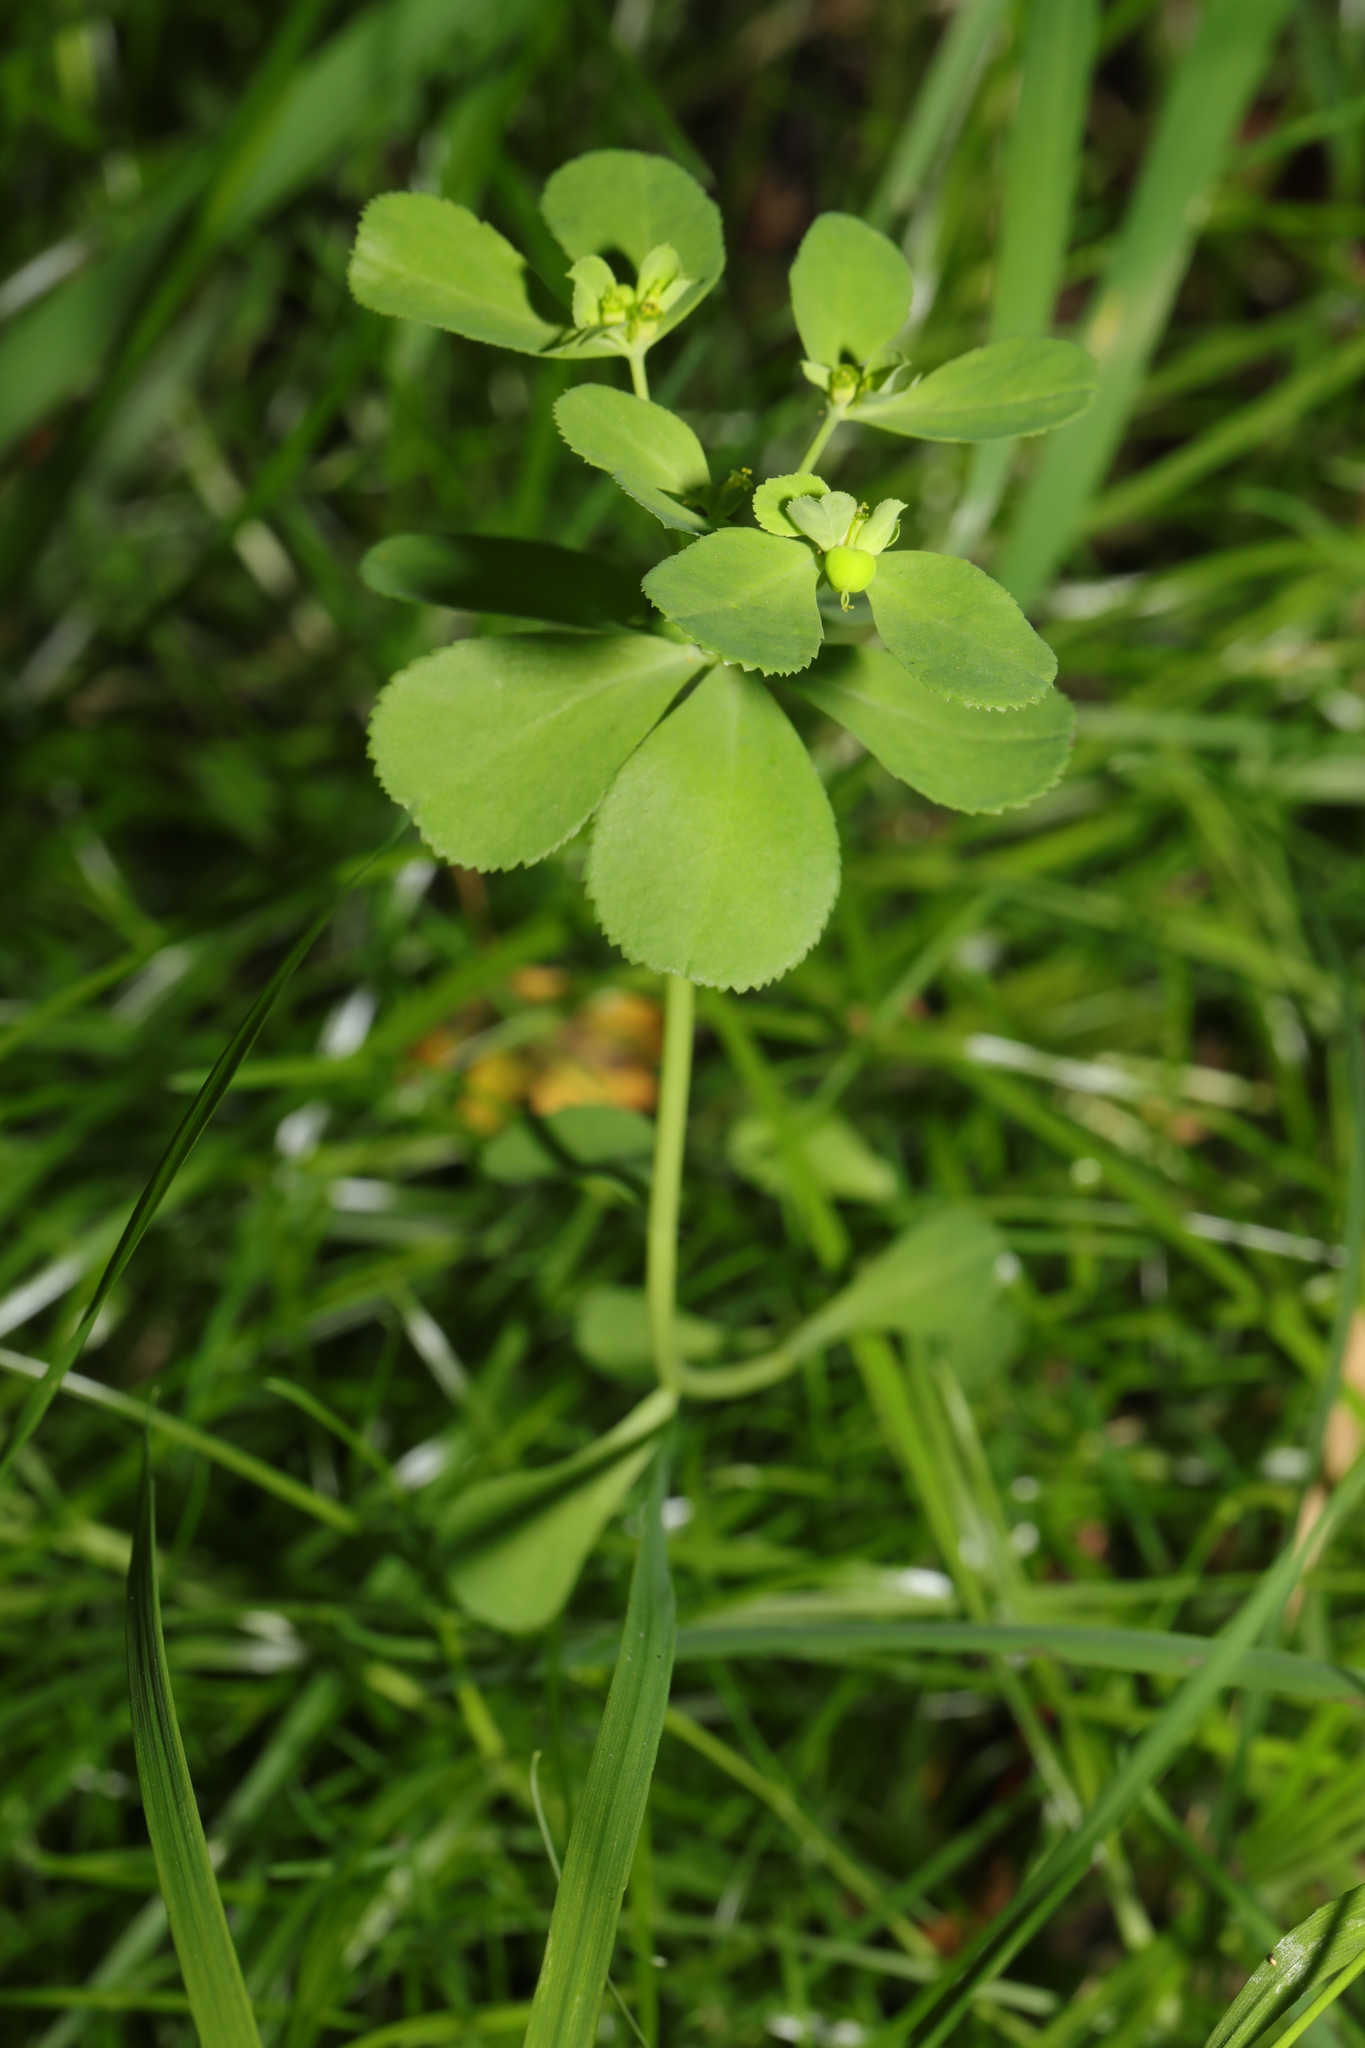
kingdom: Plantae
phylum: Tracheophyta
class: Magnoliopsida
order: Malpighiales
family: Euphorbiaceae
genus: Euphorbia
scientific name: Euphorbia helioscopia
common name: Sun spurge
